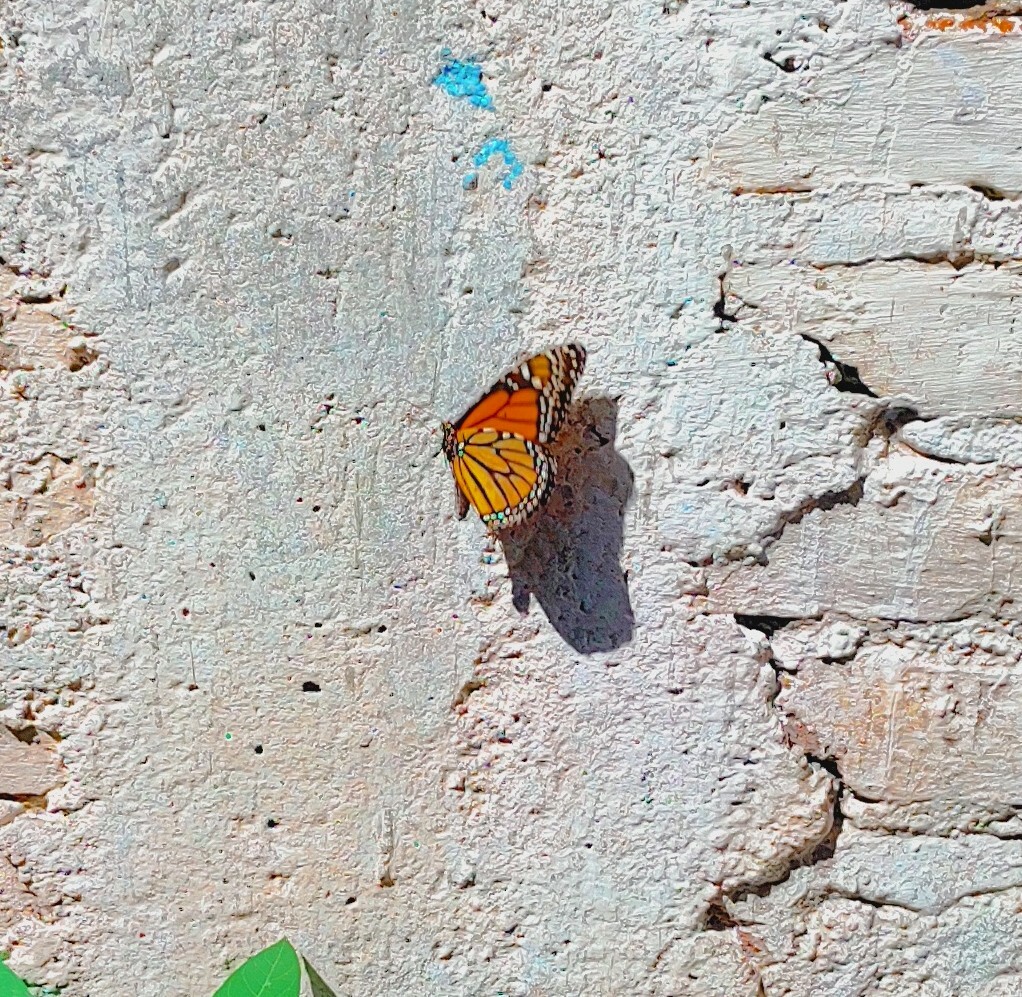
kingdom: Animalia
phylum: Arthropoda
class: Insecta
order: Lepidoptera
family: Nymphalidae
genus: Danaus
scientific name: Danaus plexippus
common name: Monarch
